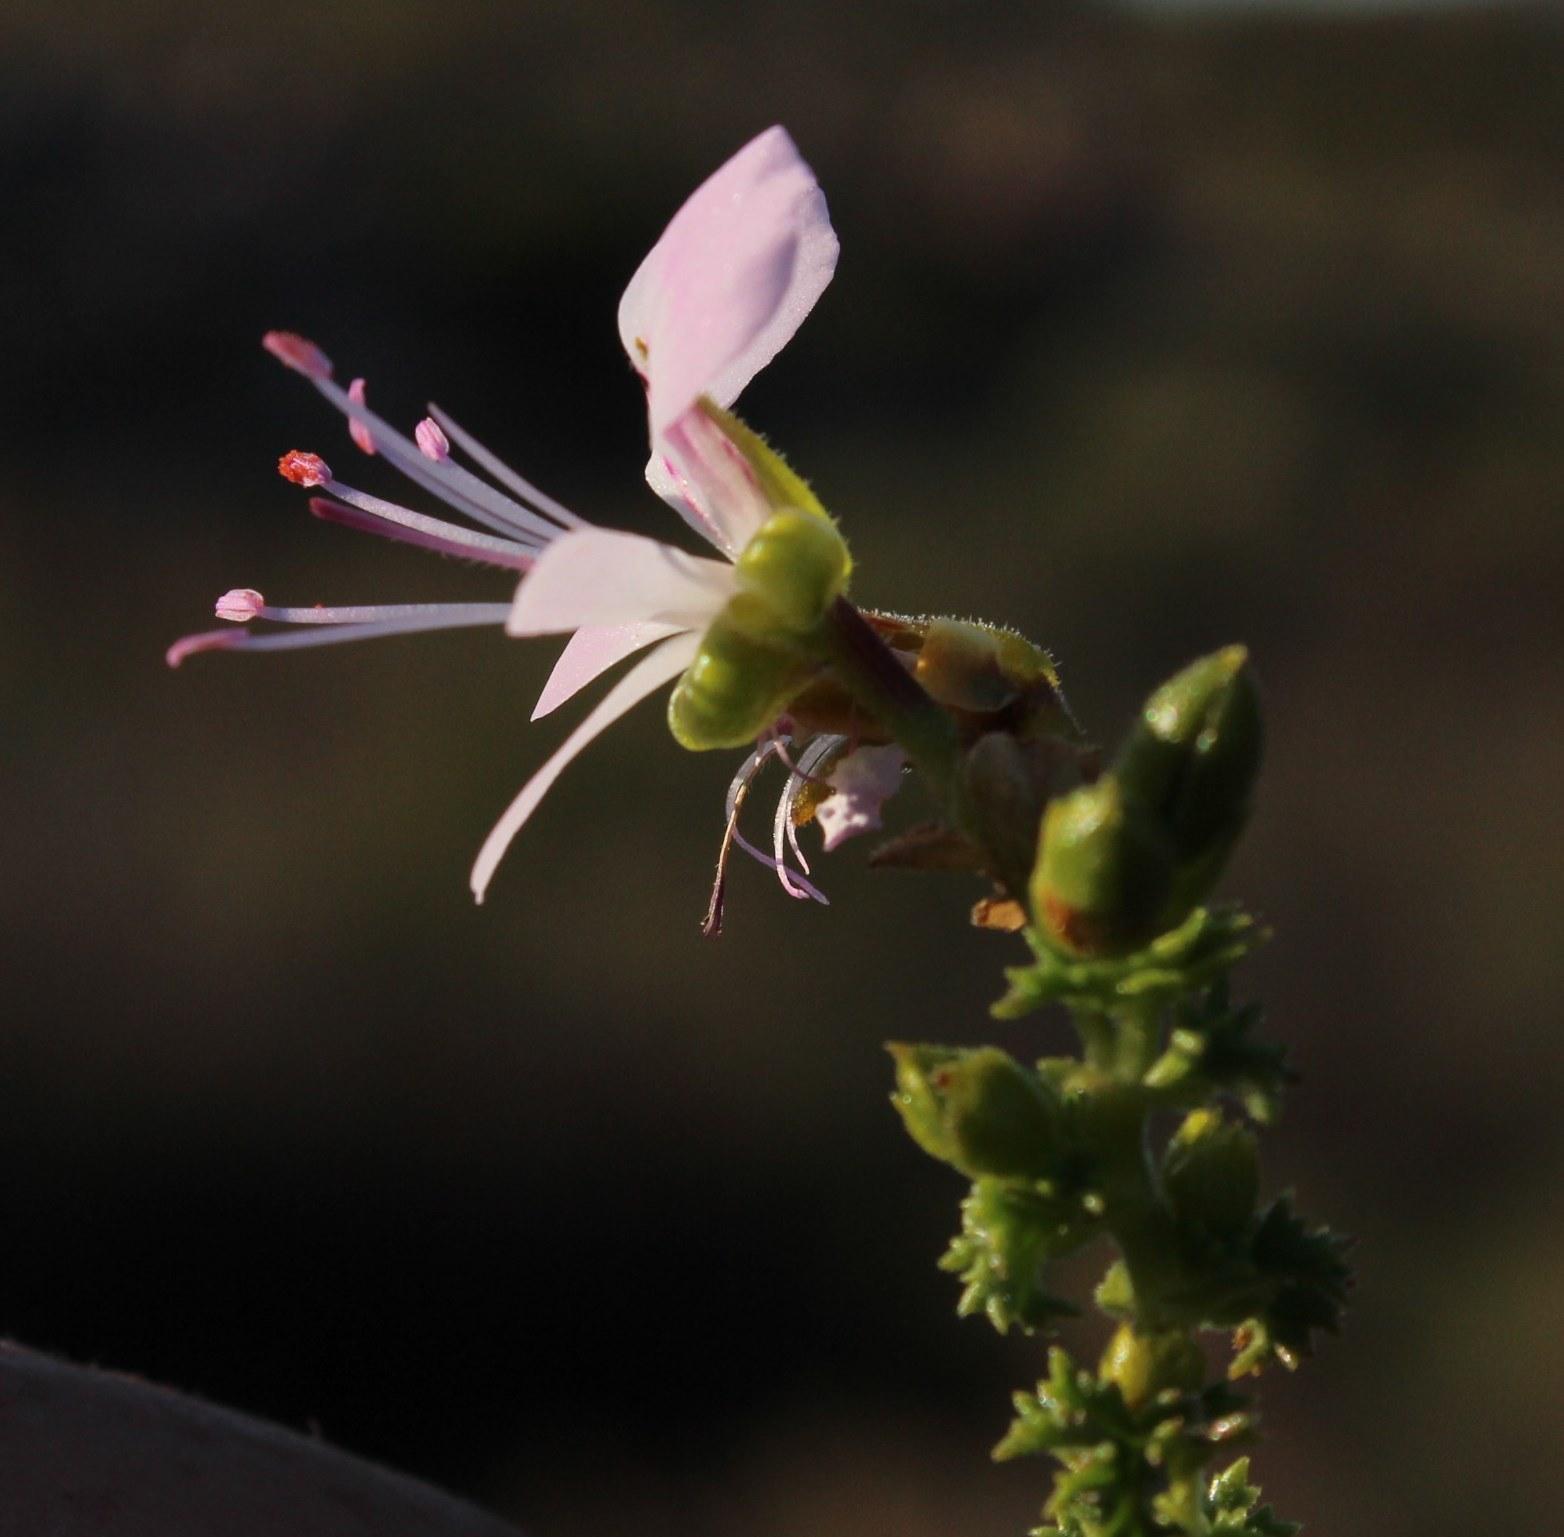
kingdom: Plantae
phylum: Tracheophyta
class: Magnoliopsida
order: Geraniales
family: Geraniaceae
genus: Pelargonium
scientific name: Pelargonium englerianum
